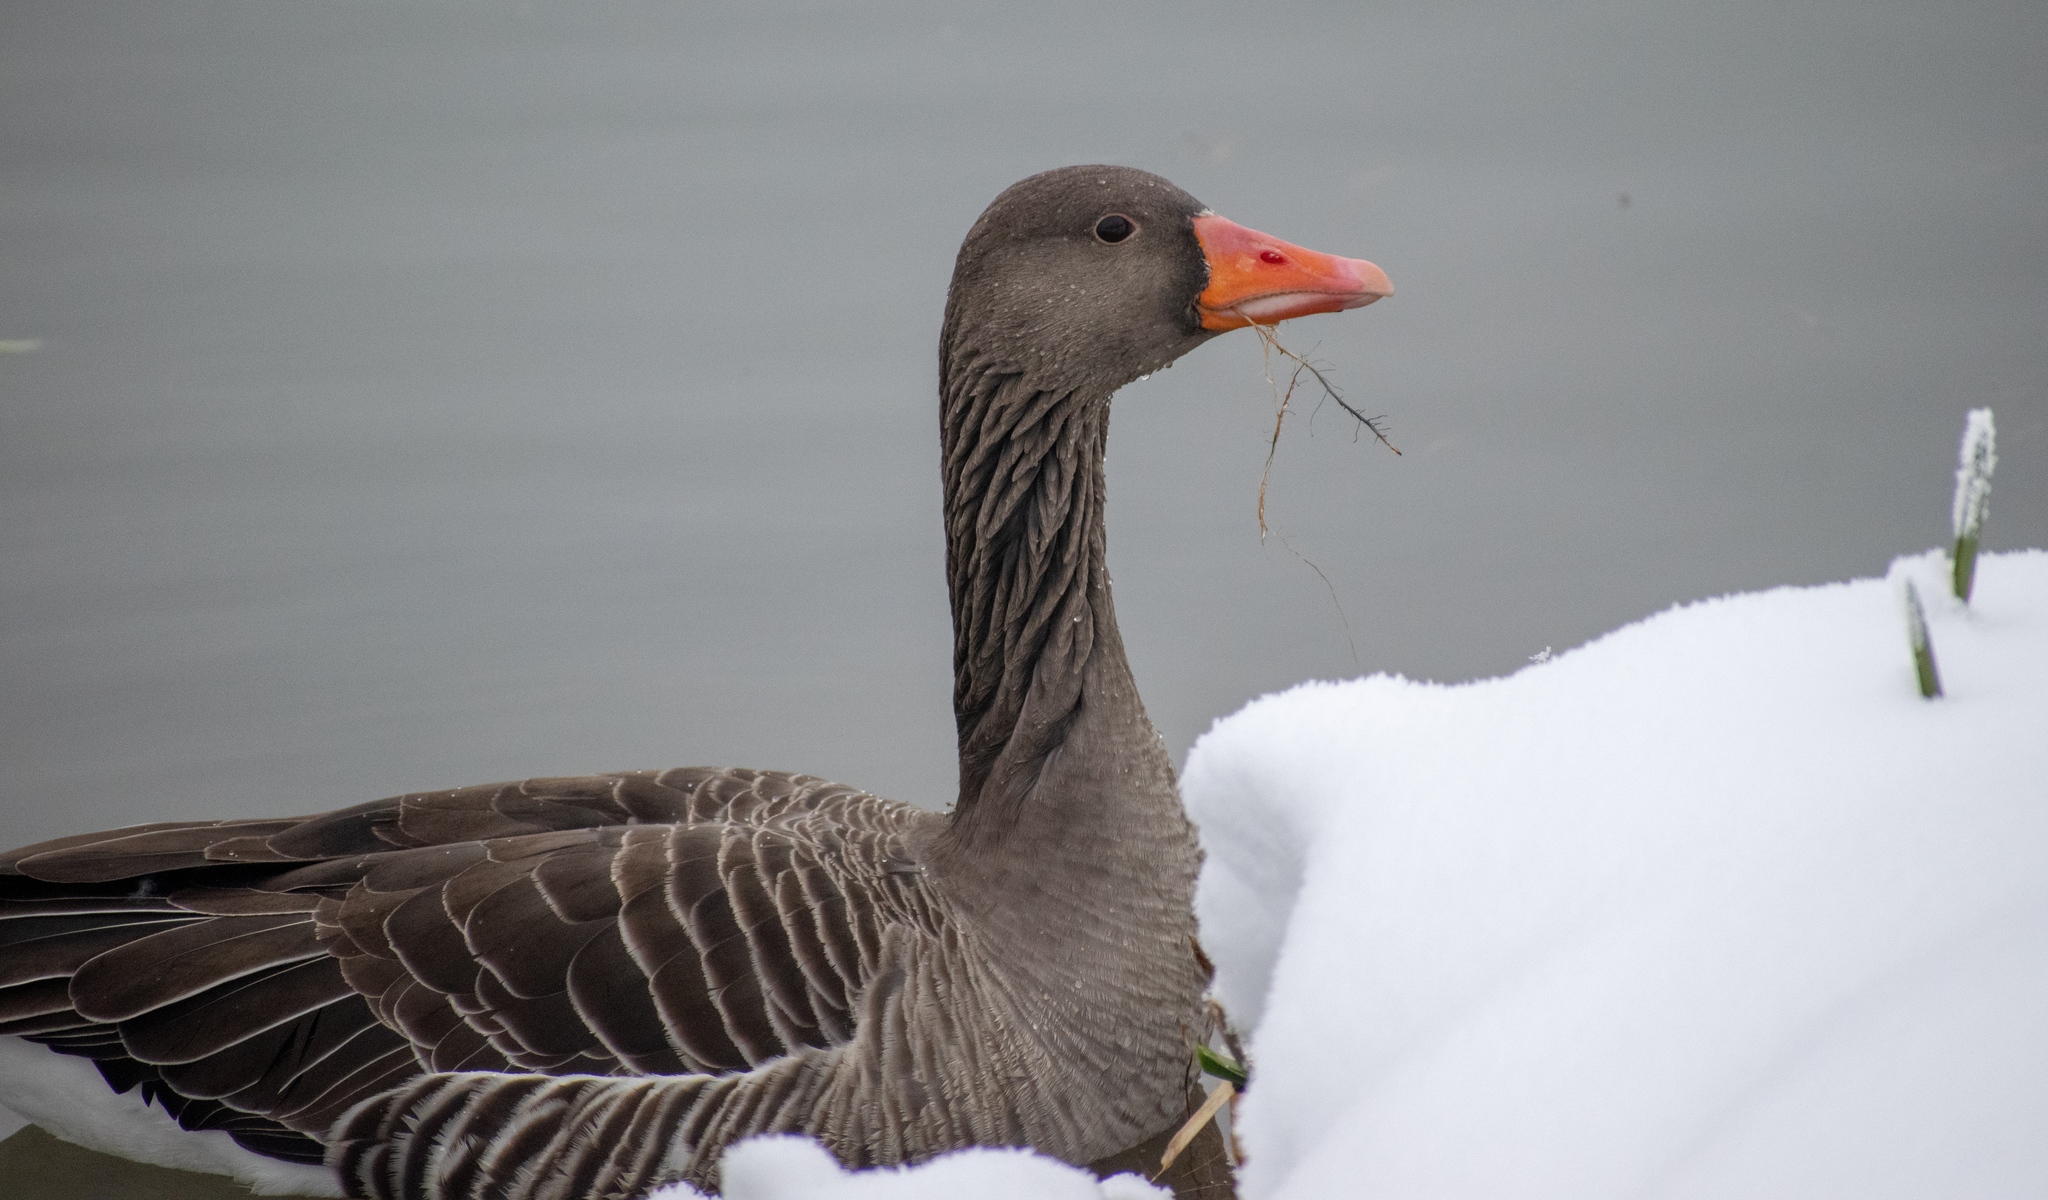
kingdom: Animalia
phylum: Chordata
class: Aves
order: Anseriformes
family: Anatidae
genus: Anser
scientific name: Anser anser
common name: Greylag goose
